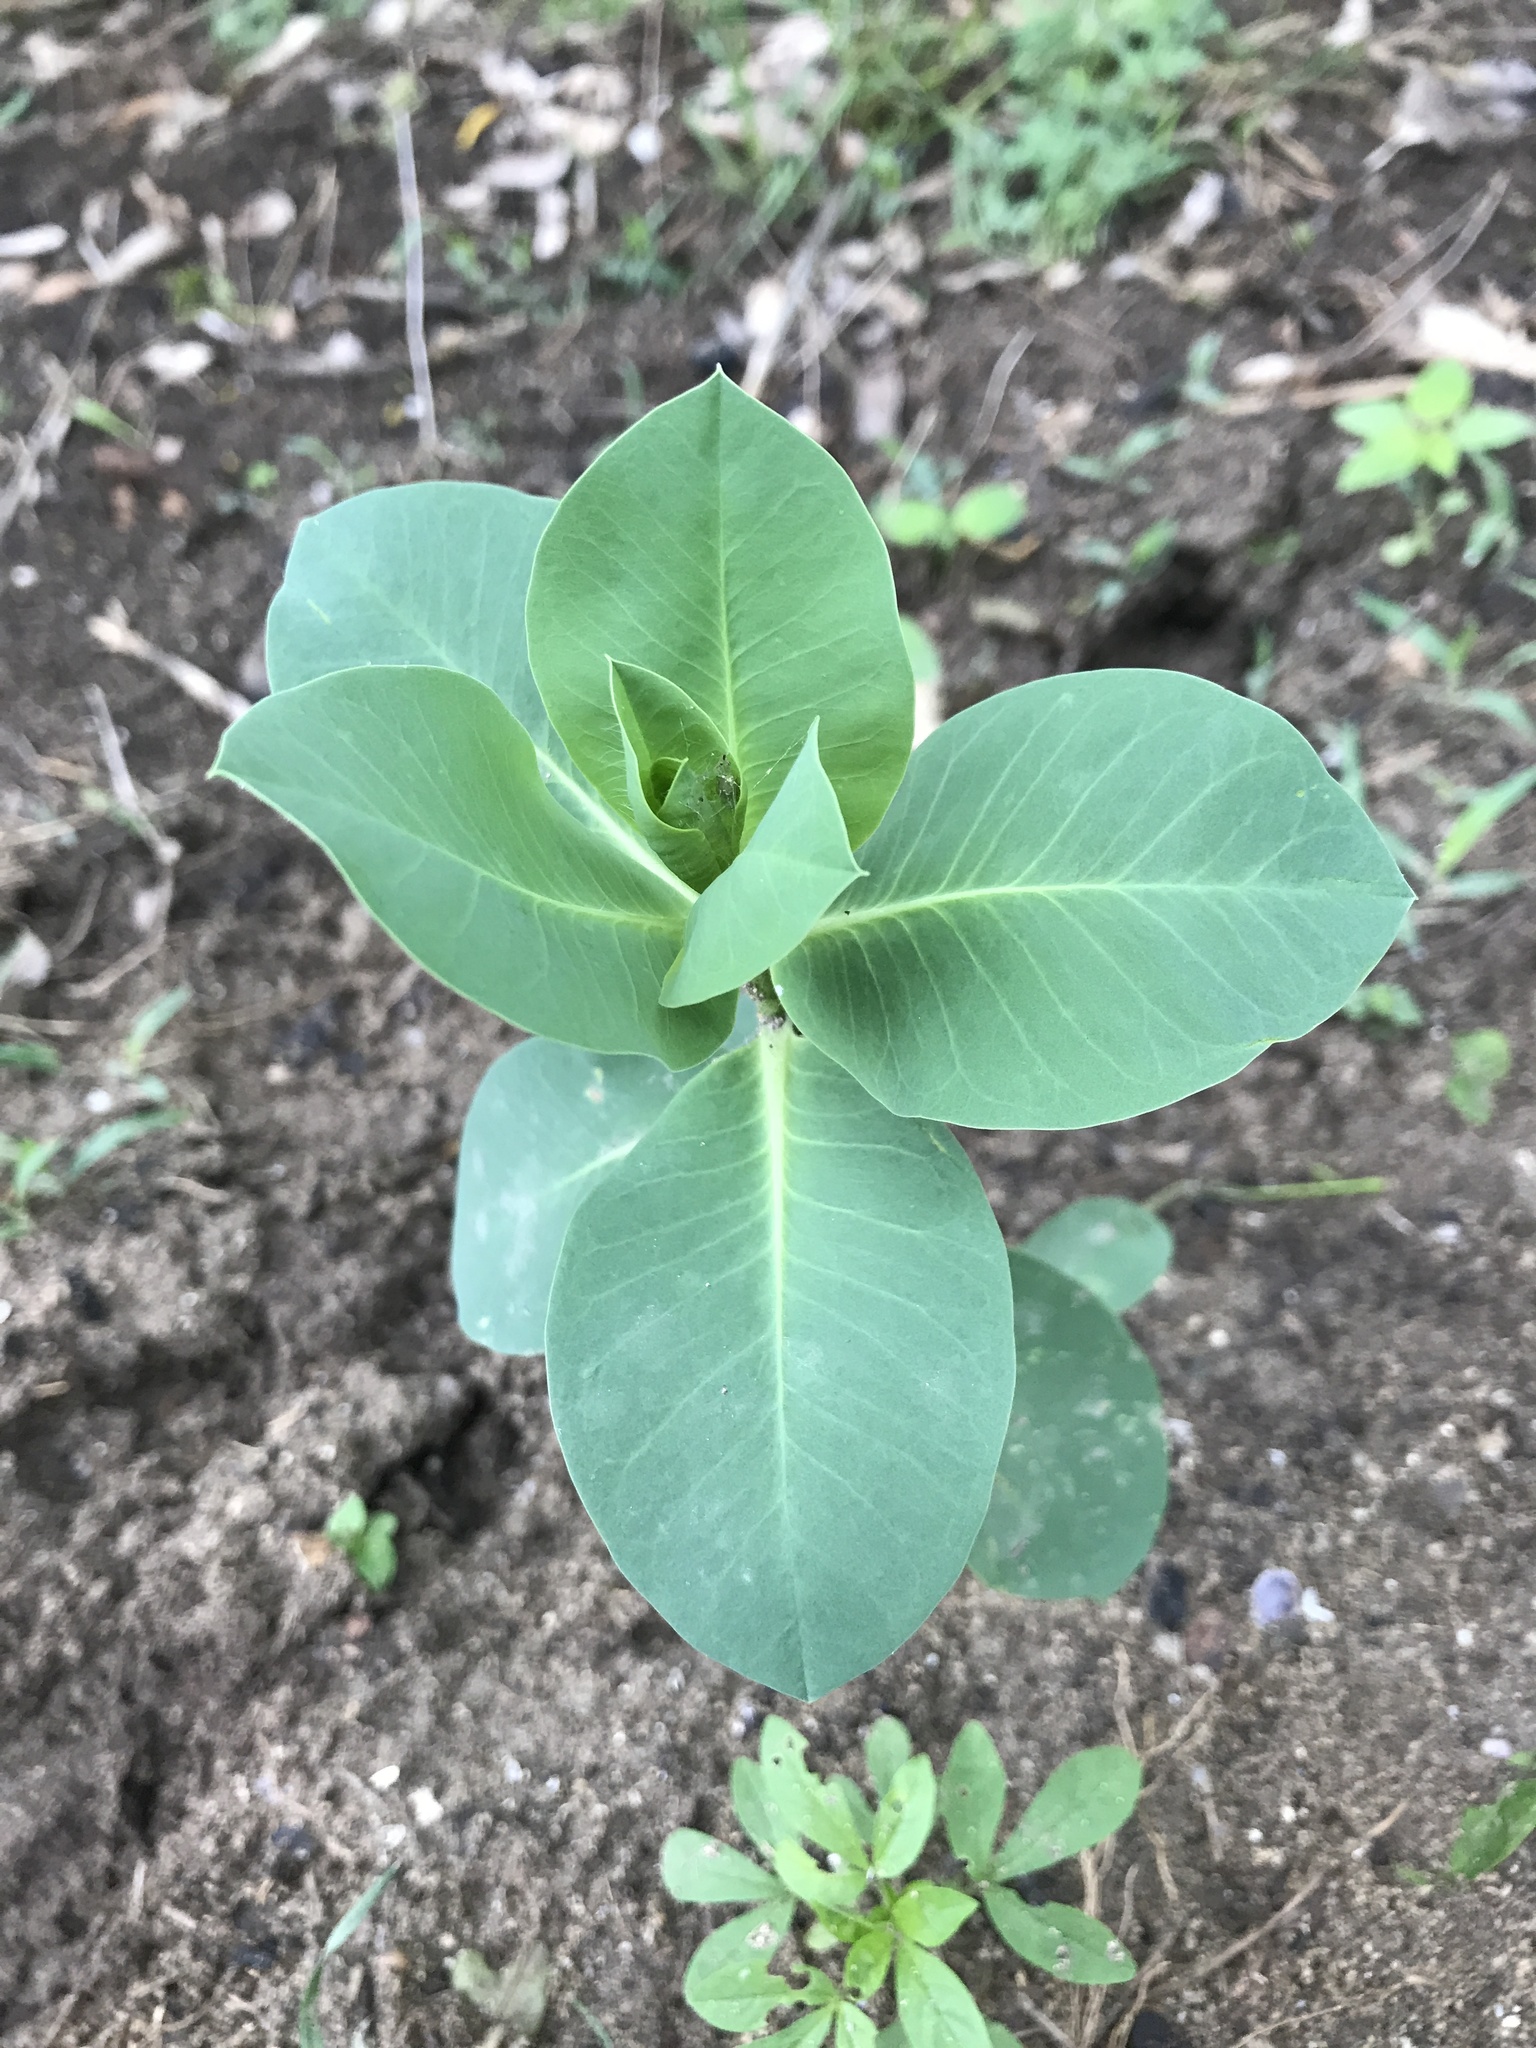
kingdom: Plantae
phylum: Tracheophyta
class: Magnoliopsida
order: Malpighiales
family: Euphorbiaceae
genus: Euphorbia
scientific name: Euphorbia marginata
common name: Ghostweed
